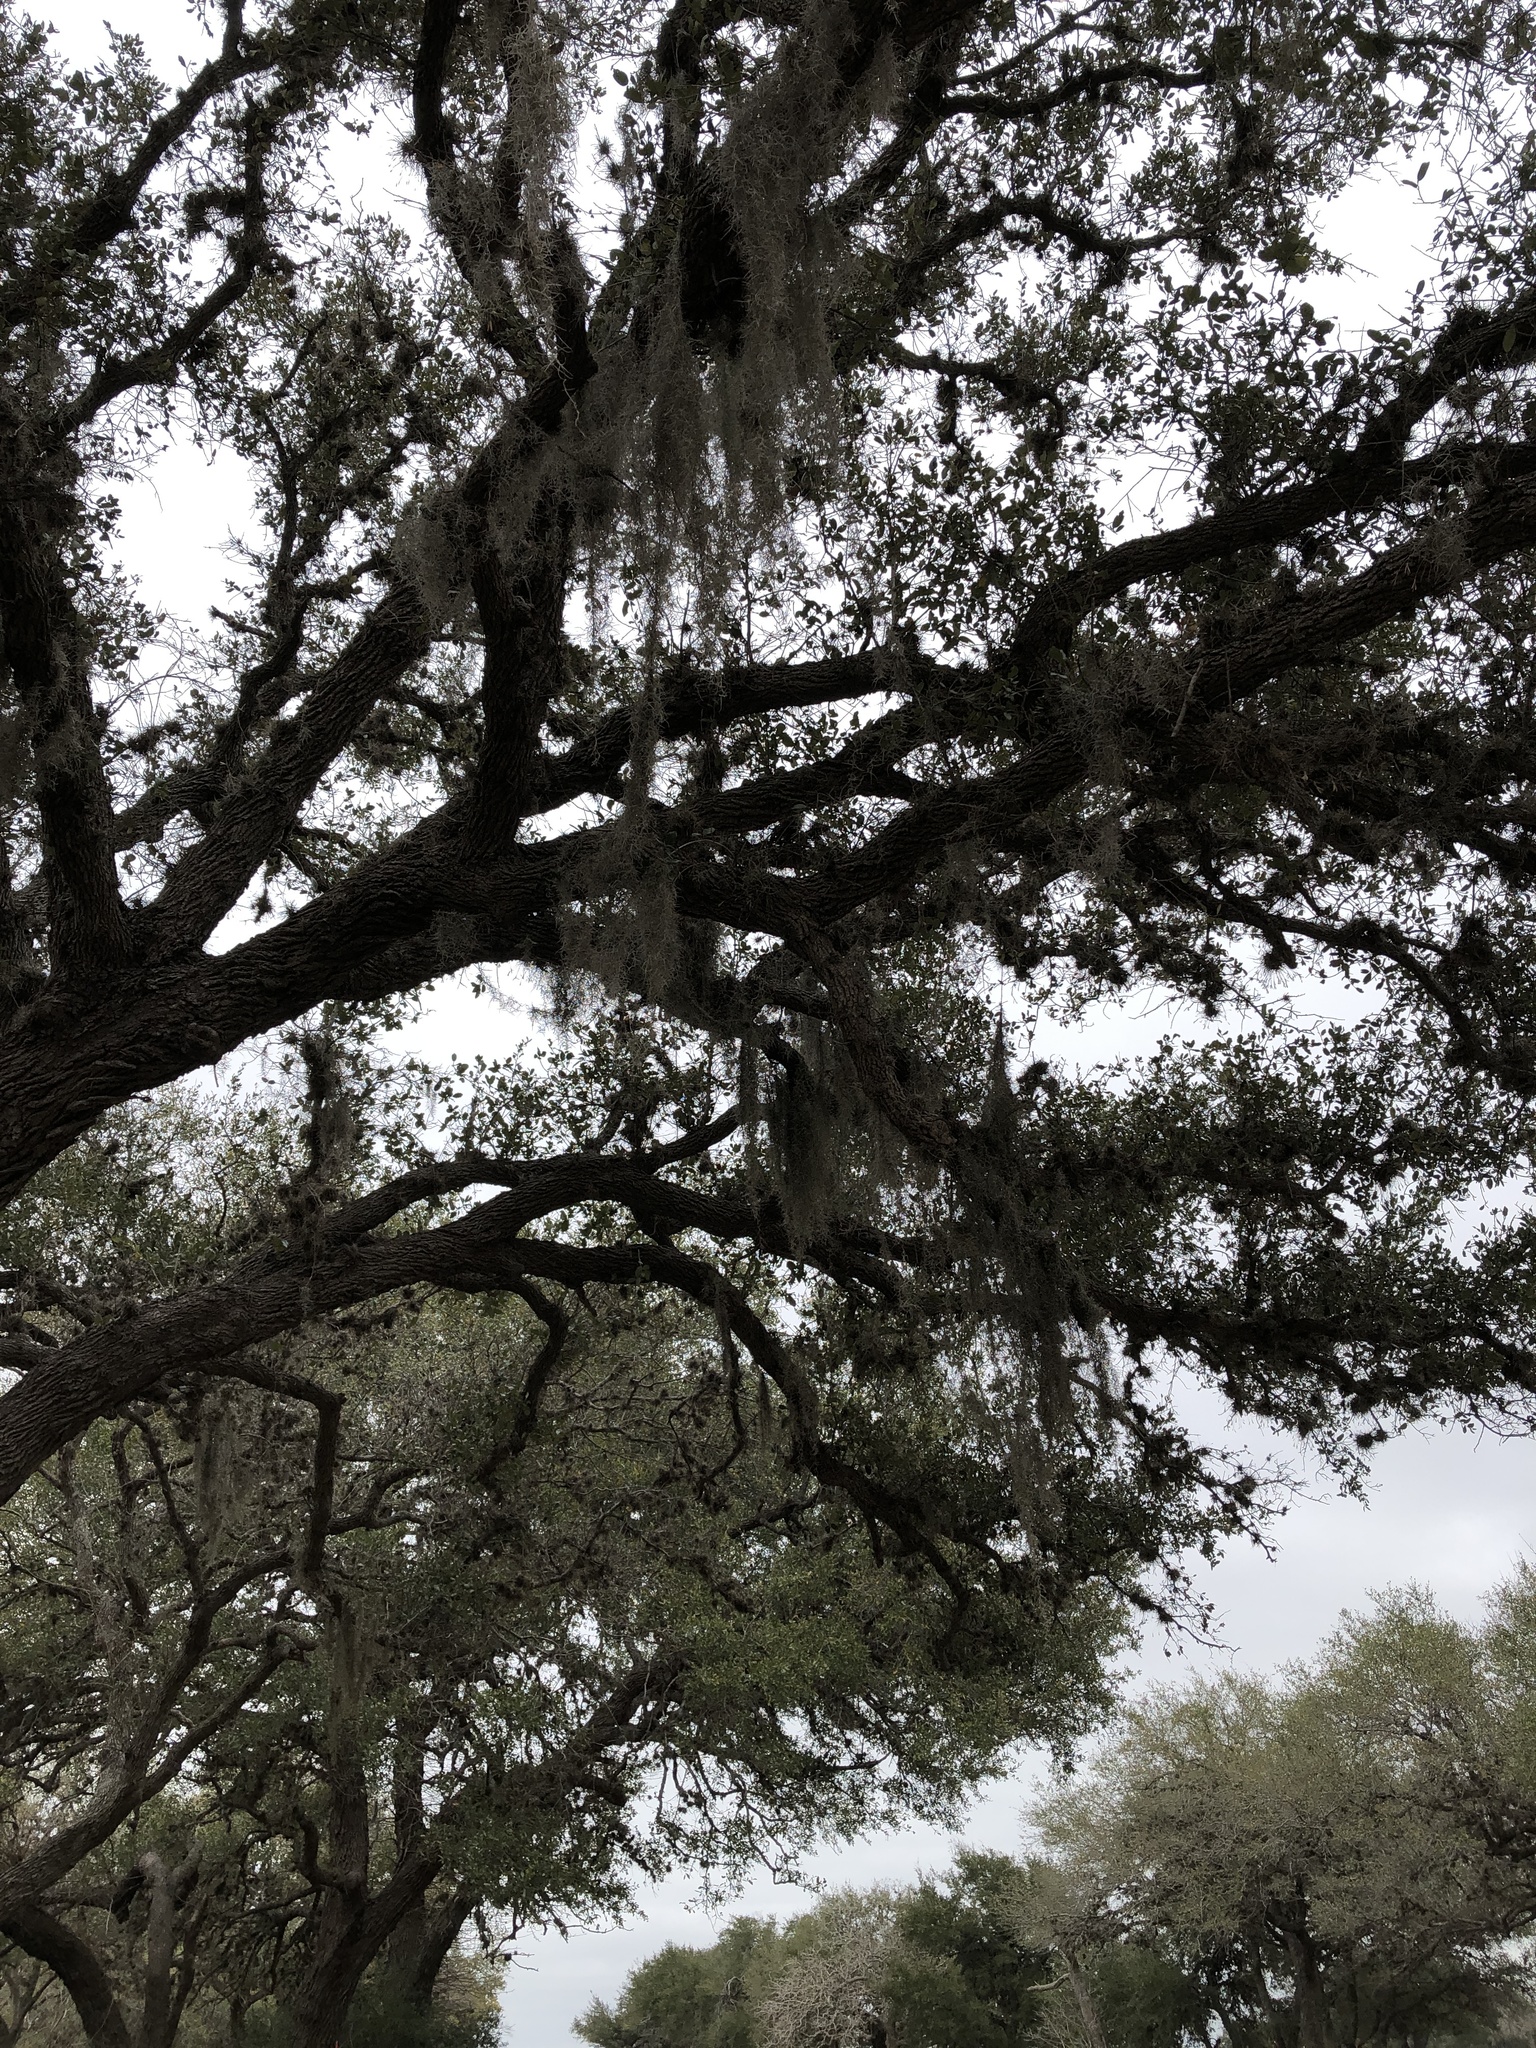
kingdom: Plantae
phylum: Tracheophyta
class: Liliopsida
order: Poales
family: Bromeliaceae
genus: Tillandsia
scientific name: Tillandsia usneoides
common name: Spanish moss
